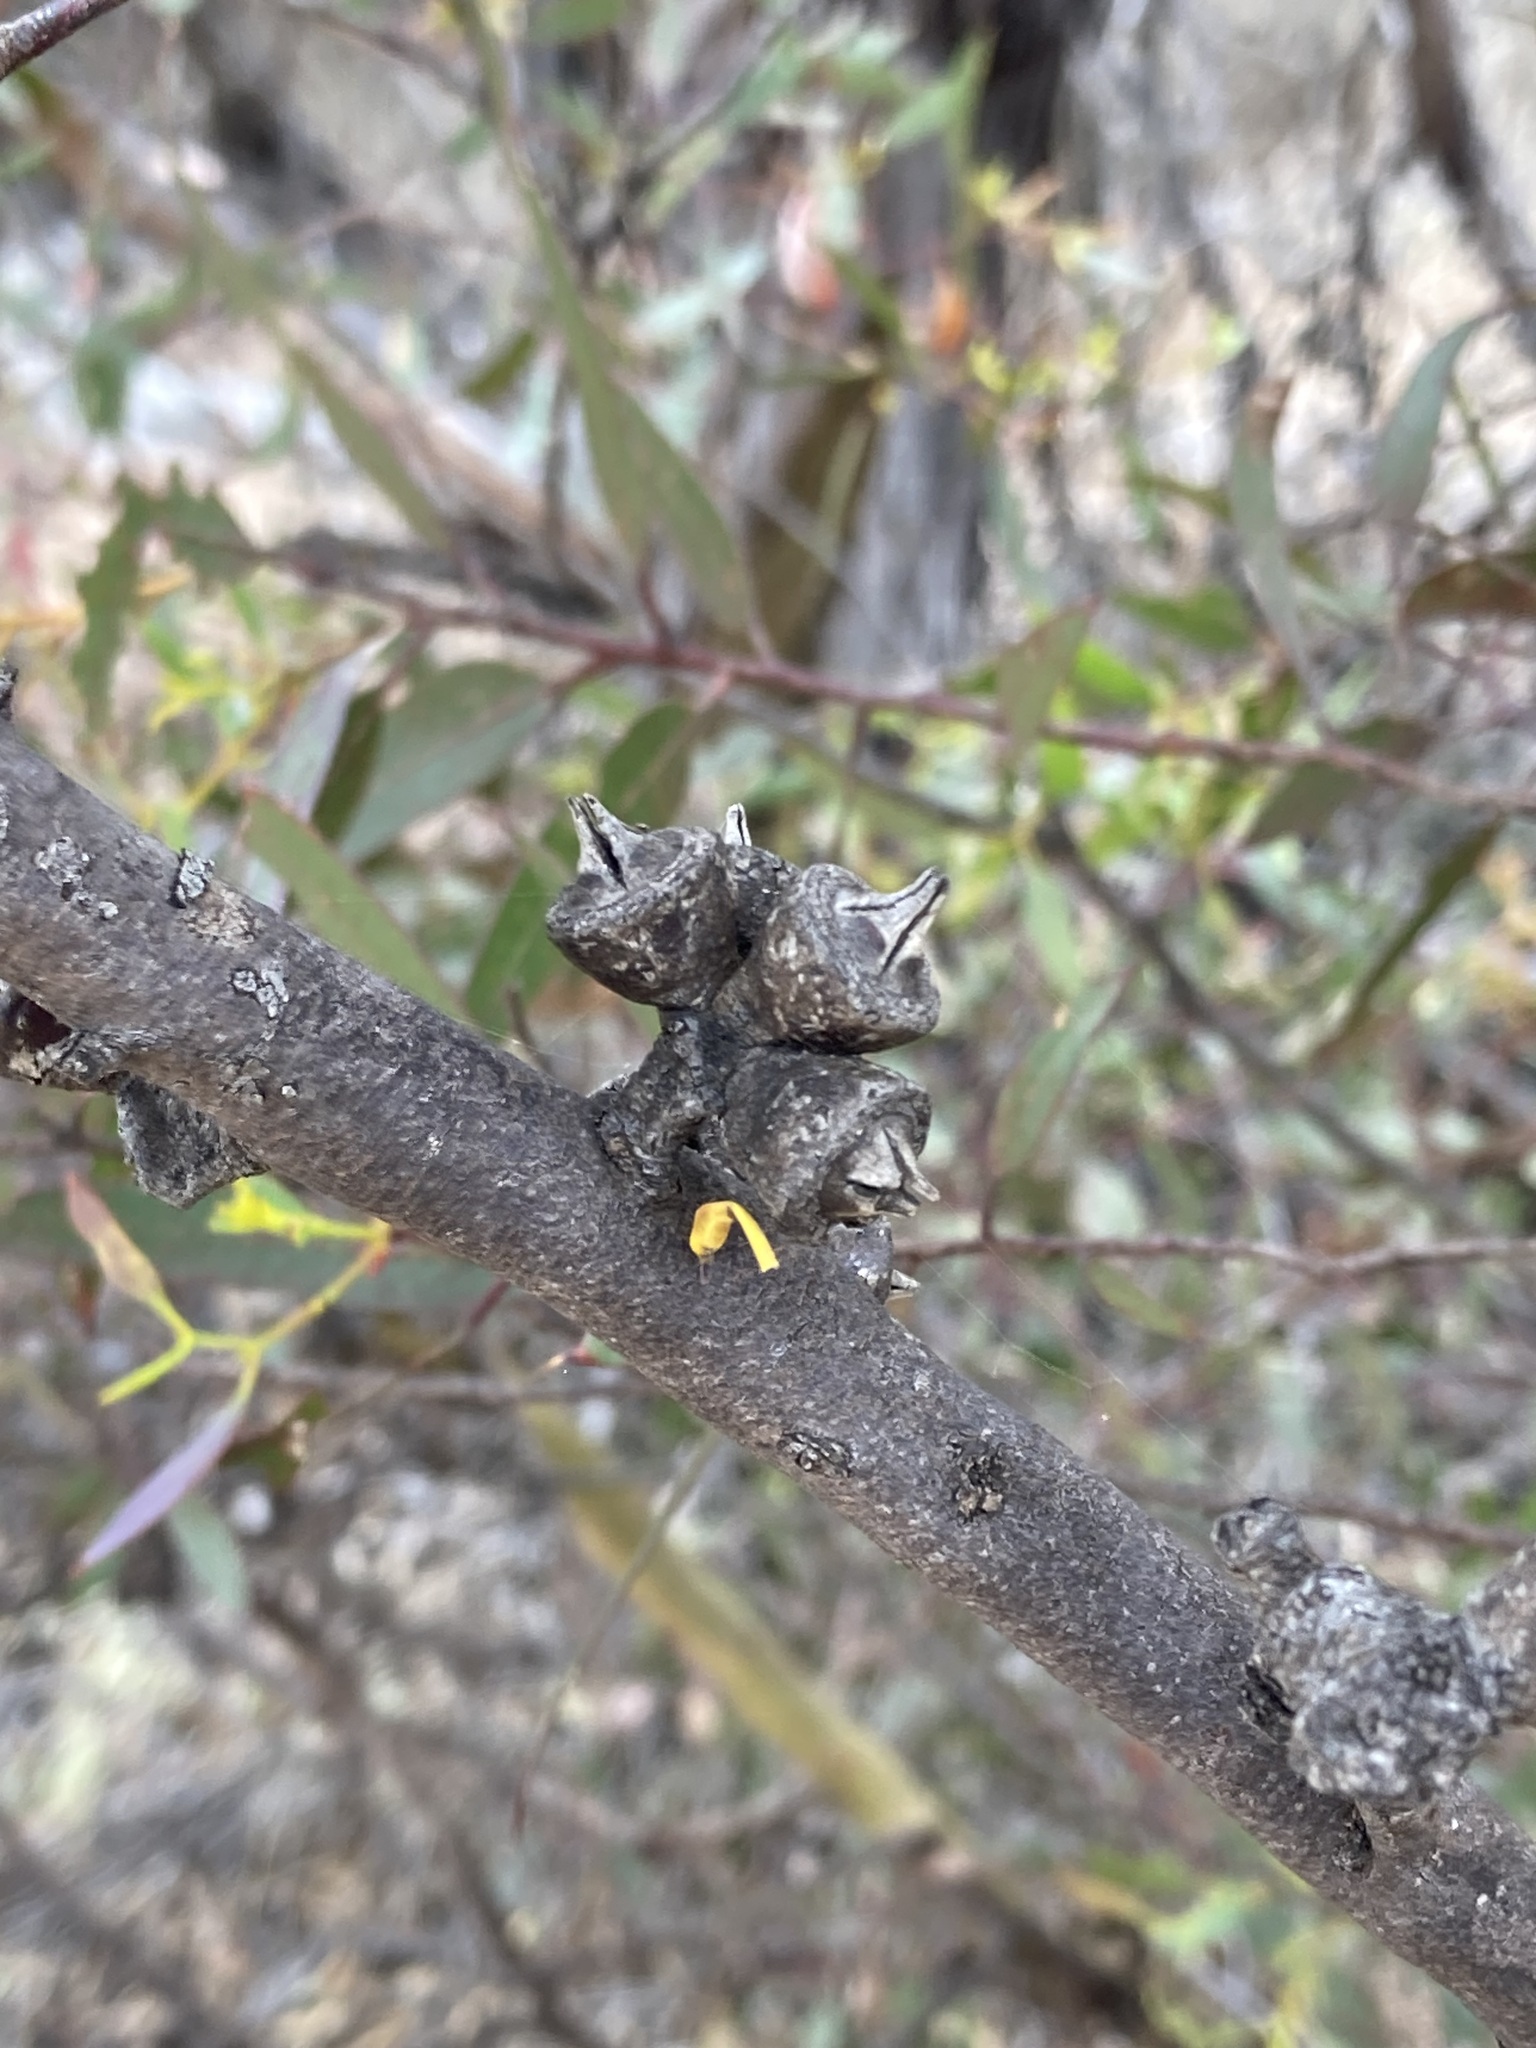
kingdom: Plantae
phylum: Tracheophyta
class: Magnoliopsida
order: Myrtales
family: Myrtaceae
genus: Eucalyptus
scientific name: Eucalyptus annulata
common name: Open-fruited mallee
